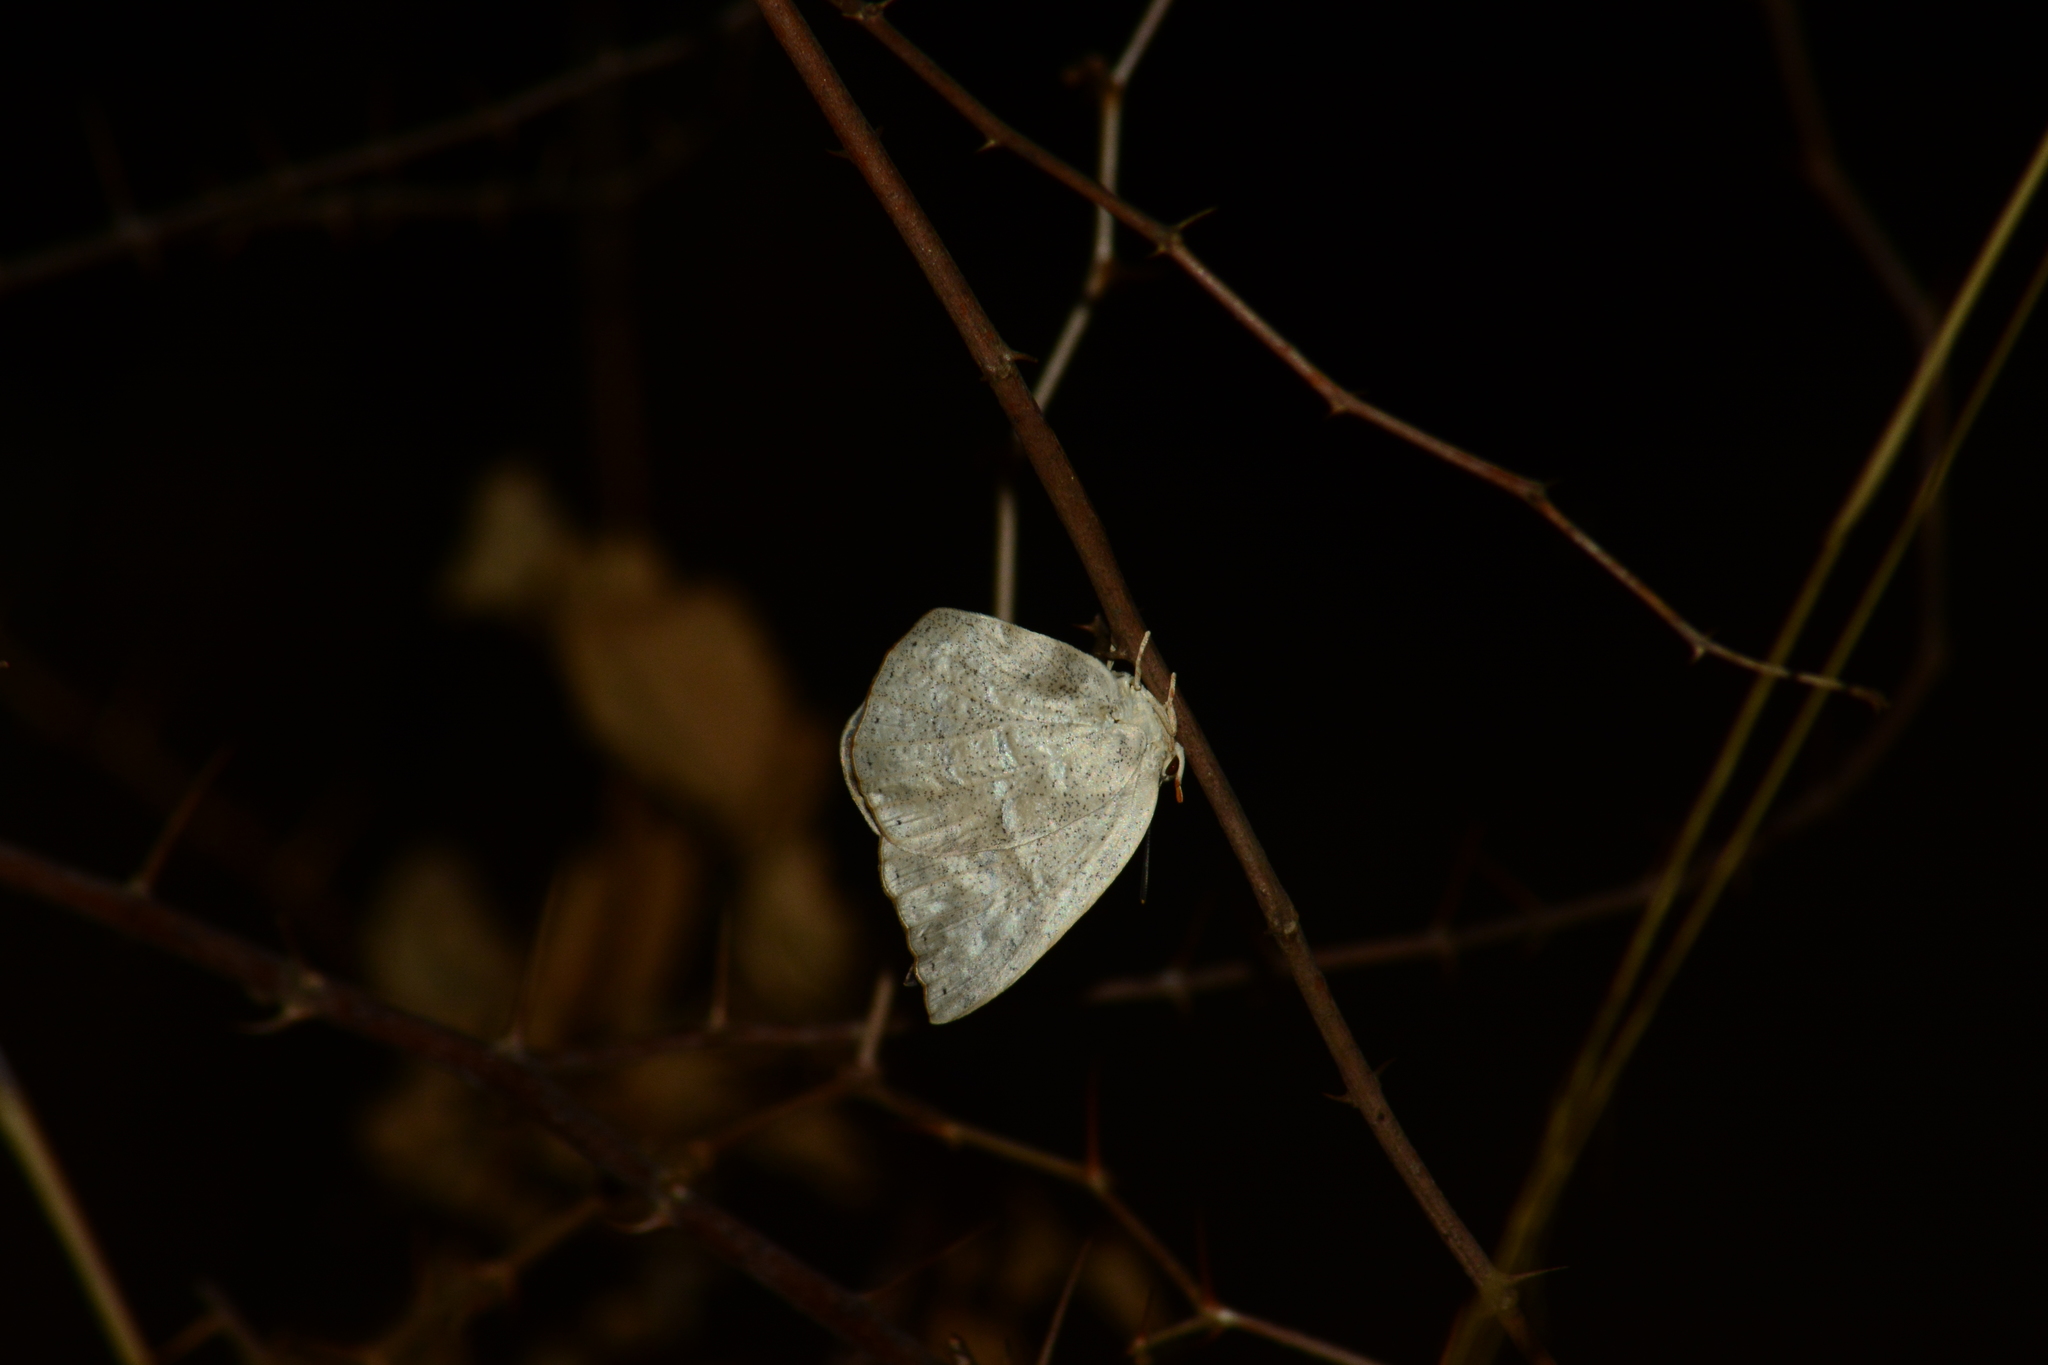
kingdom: Animalia
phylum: Arthropoda
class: Insecta
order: Lepidoptera
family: Lycaenidae
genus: Curetis
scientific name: Curetis acuta
